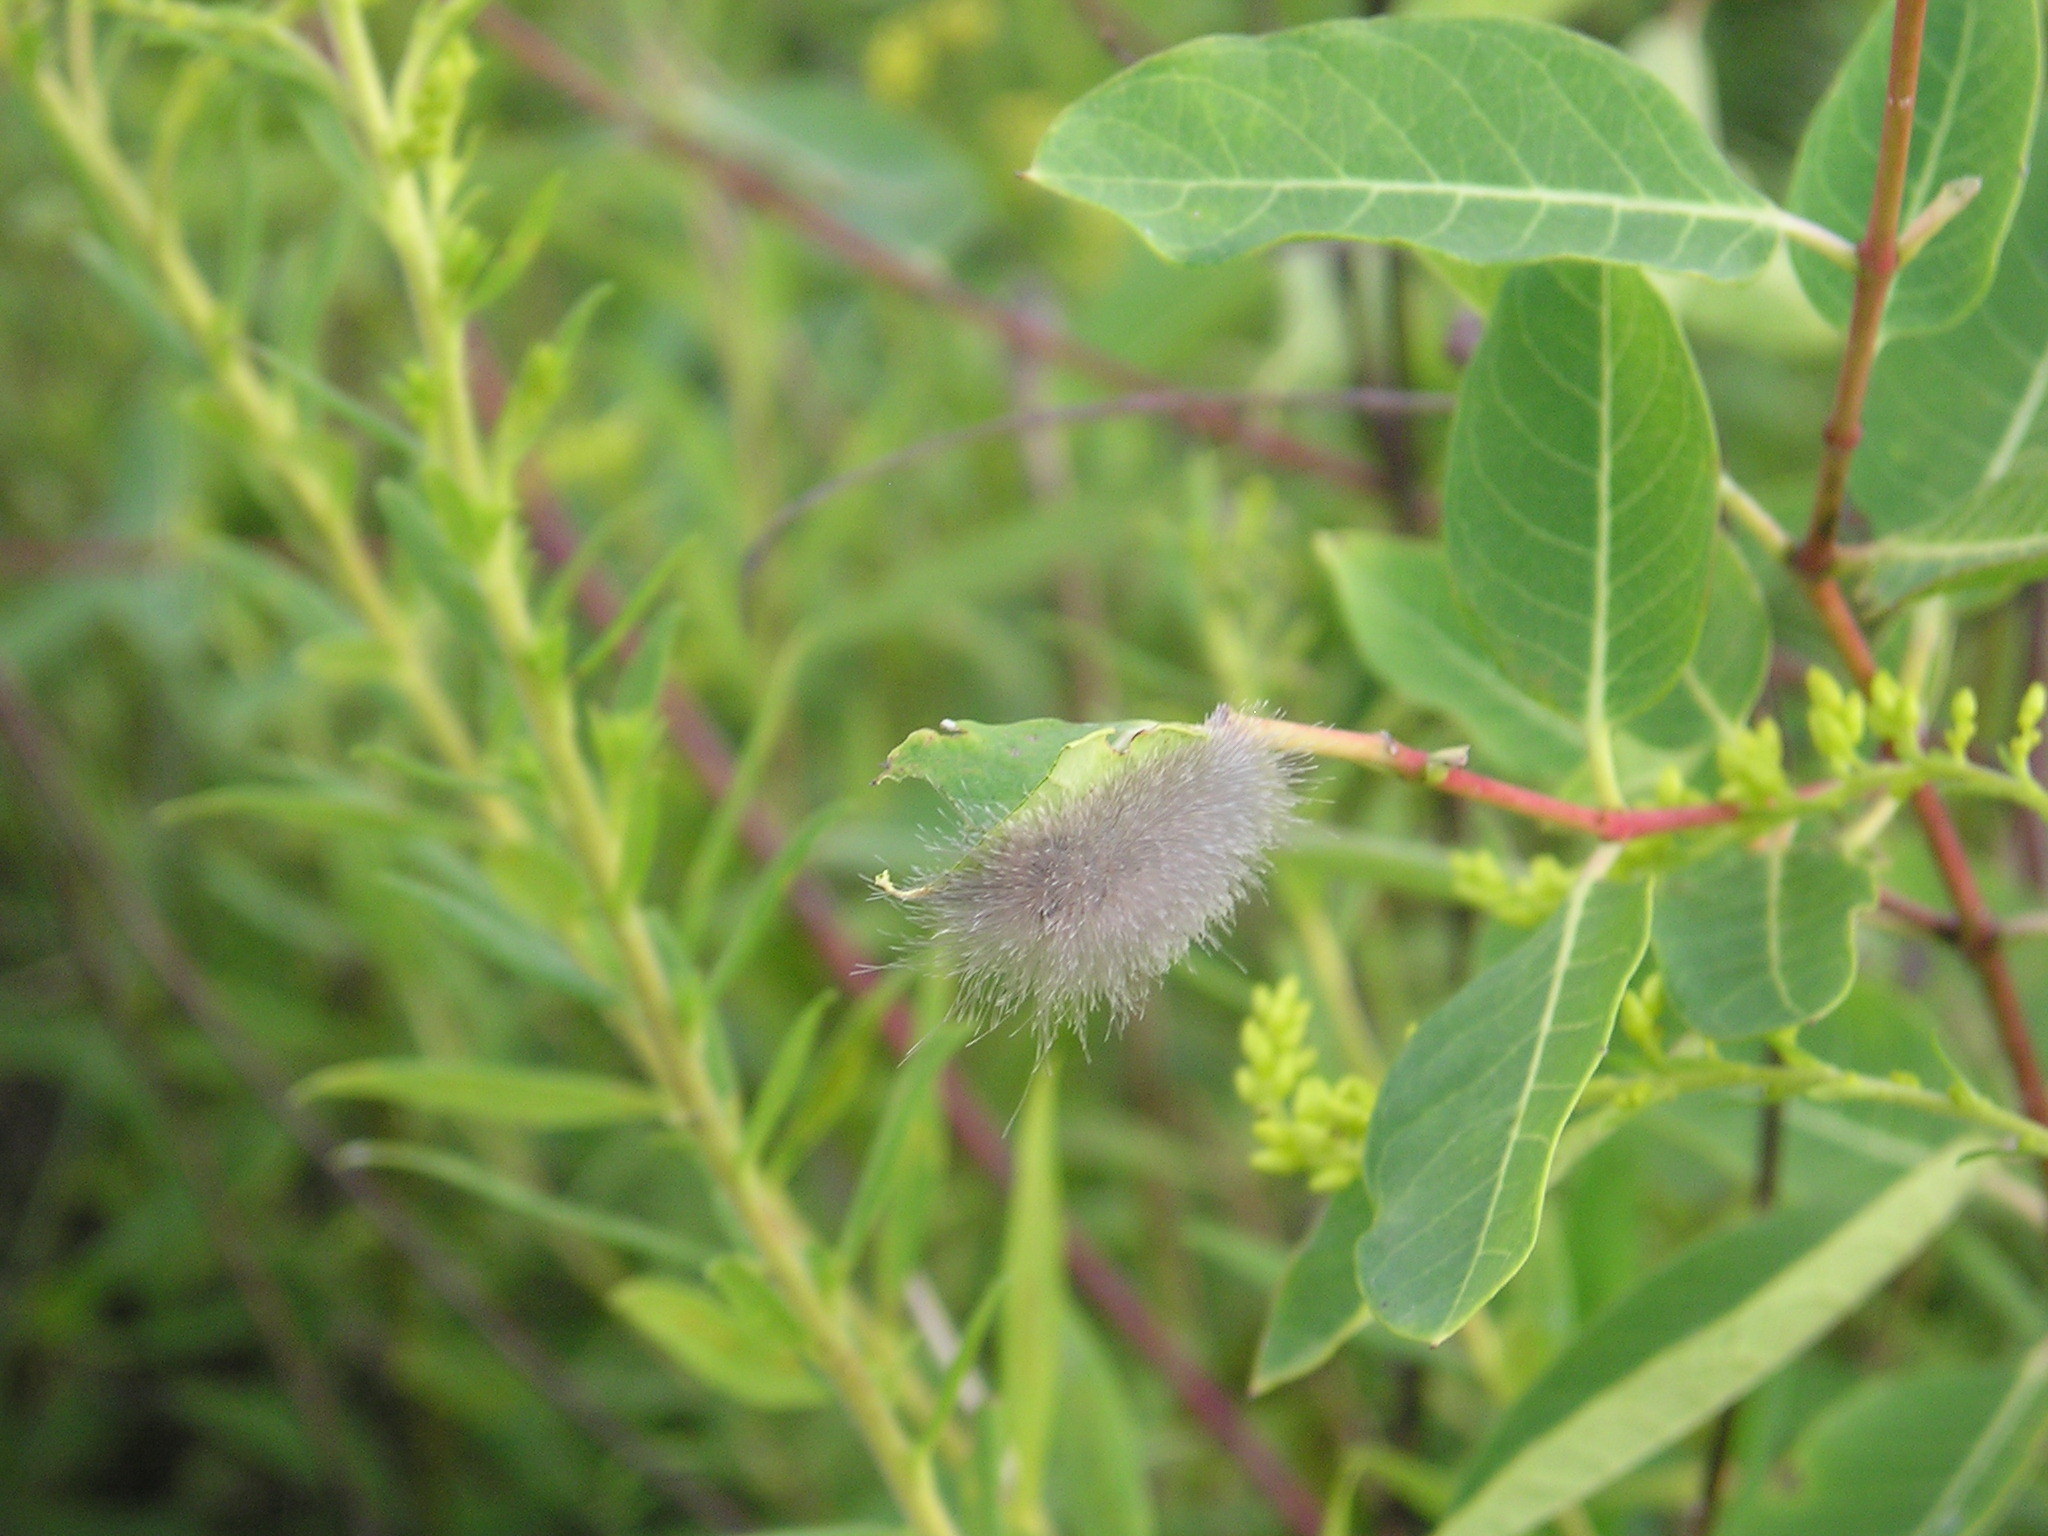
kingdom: Animalia
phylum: Arthropoda
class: Insecta
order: Lepidoptera
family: Erebidae
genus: Cycnia
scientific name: Cycnia tenera
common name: Delicate cycnia moth
